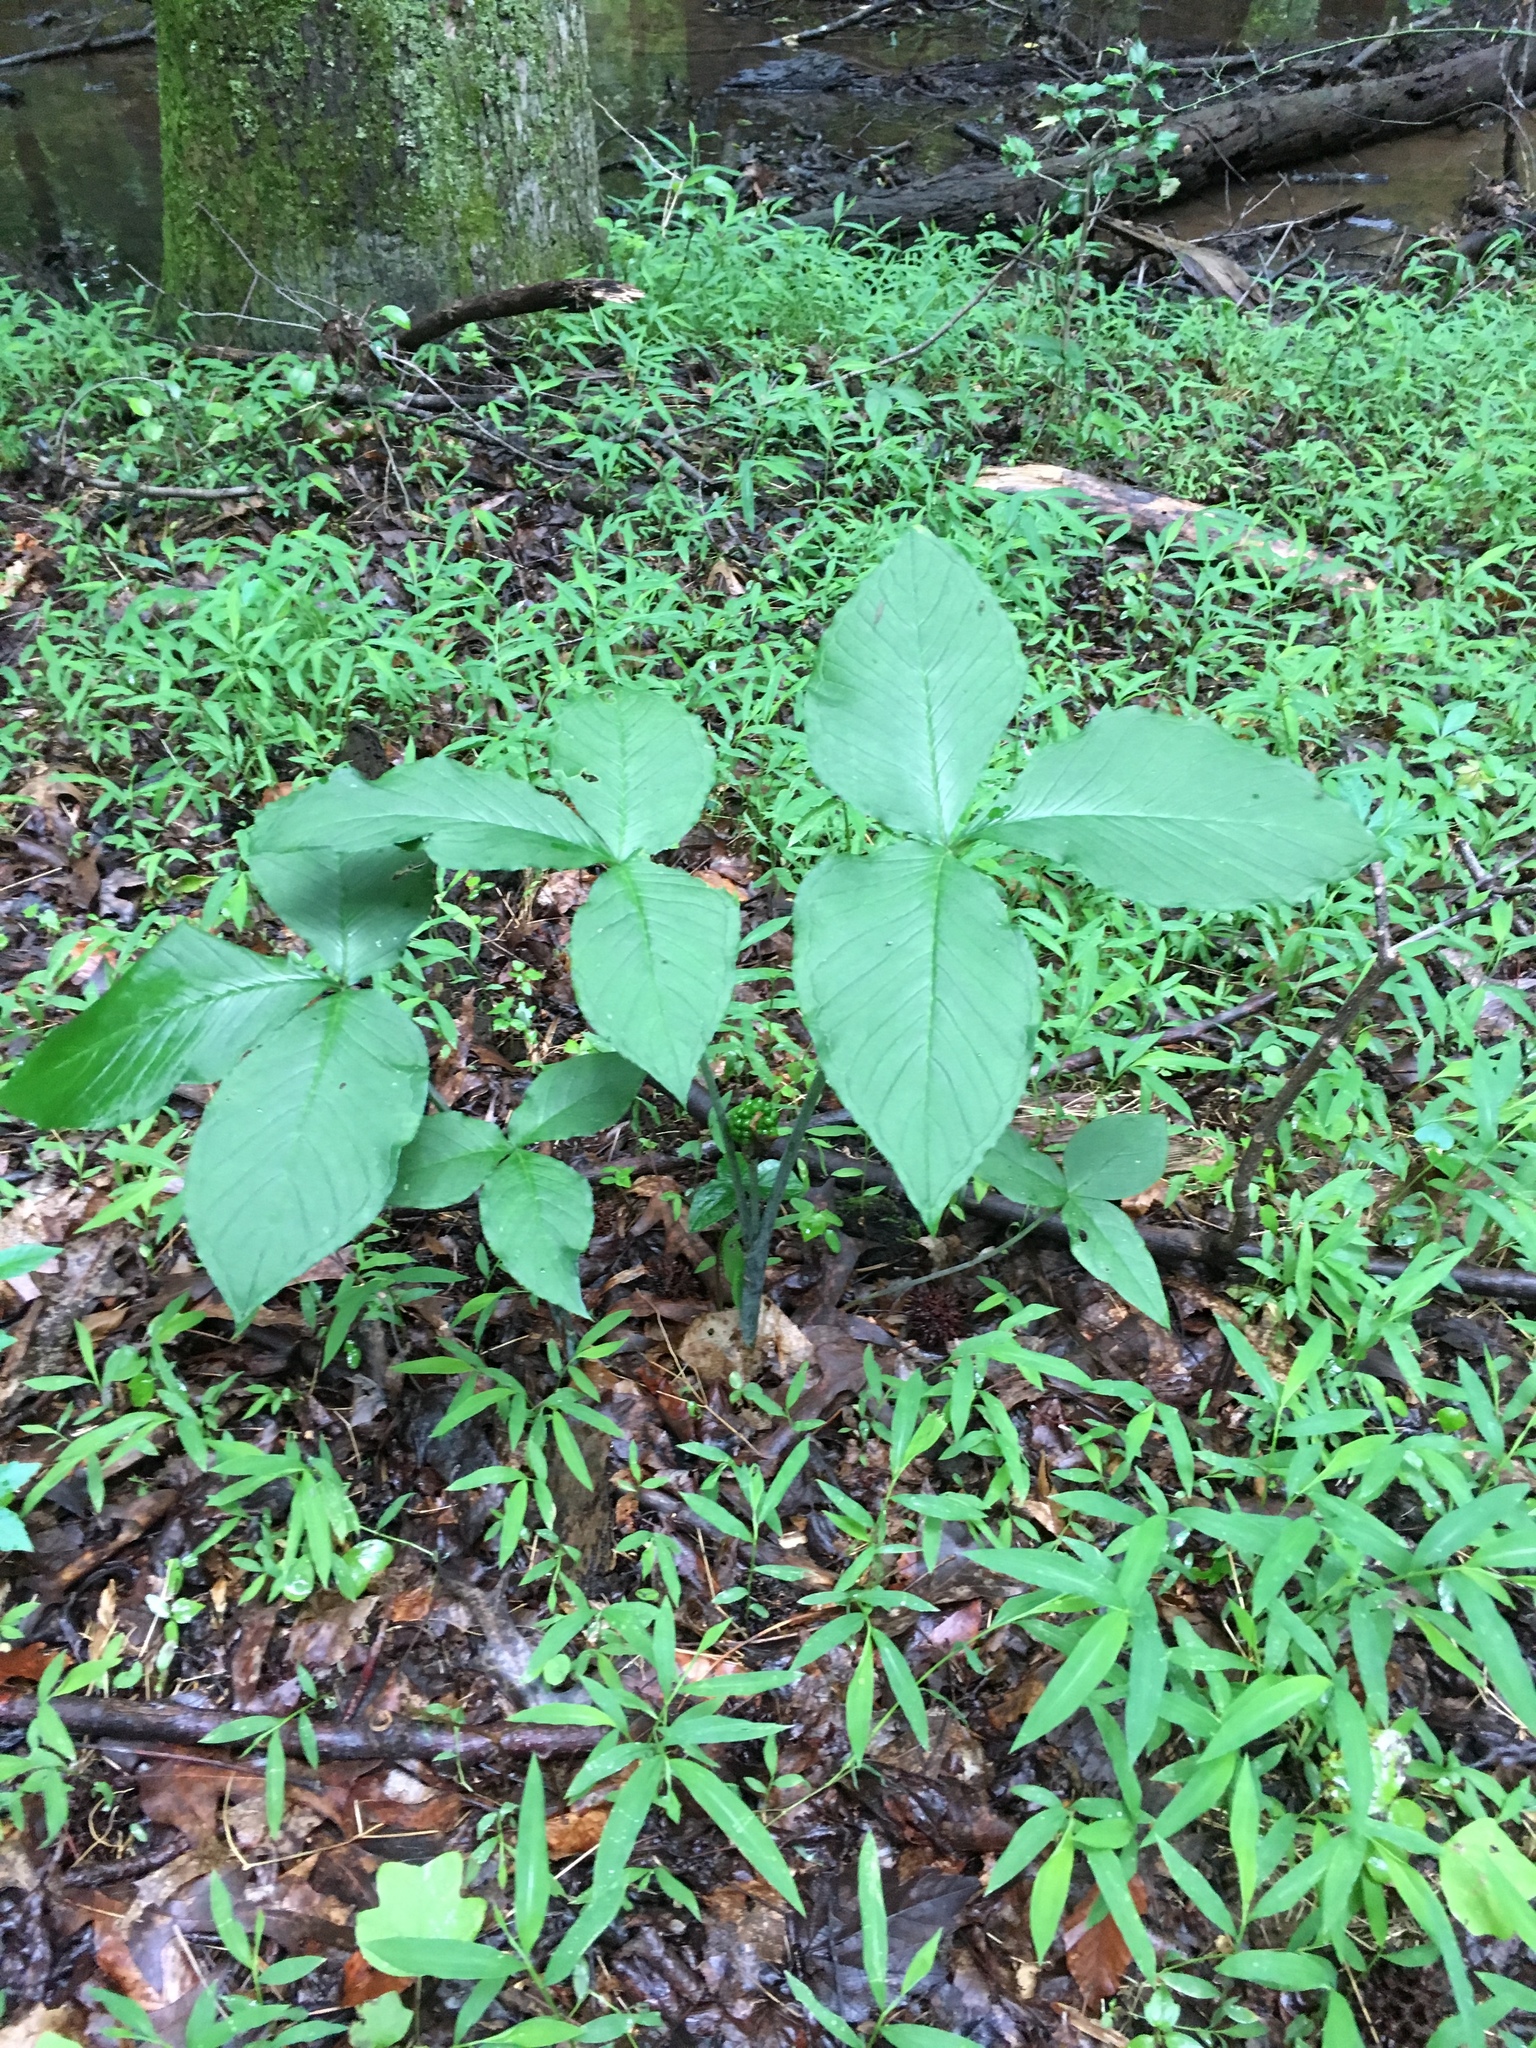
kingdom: Plantae
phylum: Tracheophyta
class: Liliopsida
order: Alismatales
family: Araceae
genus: Arisaema
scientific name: Arisaema triphyllum
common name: Jack-in-the-pulpit
